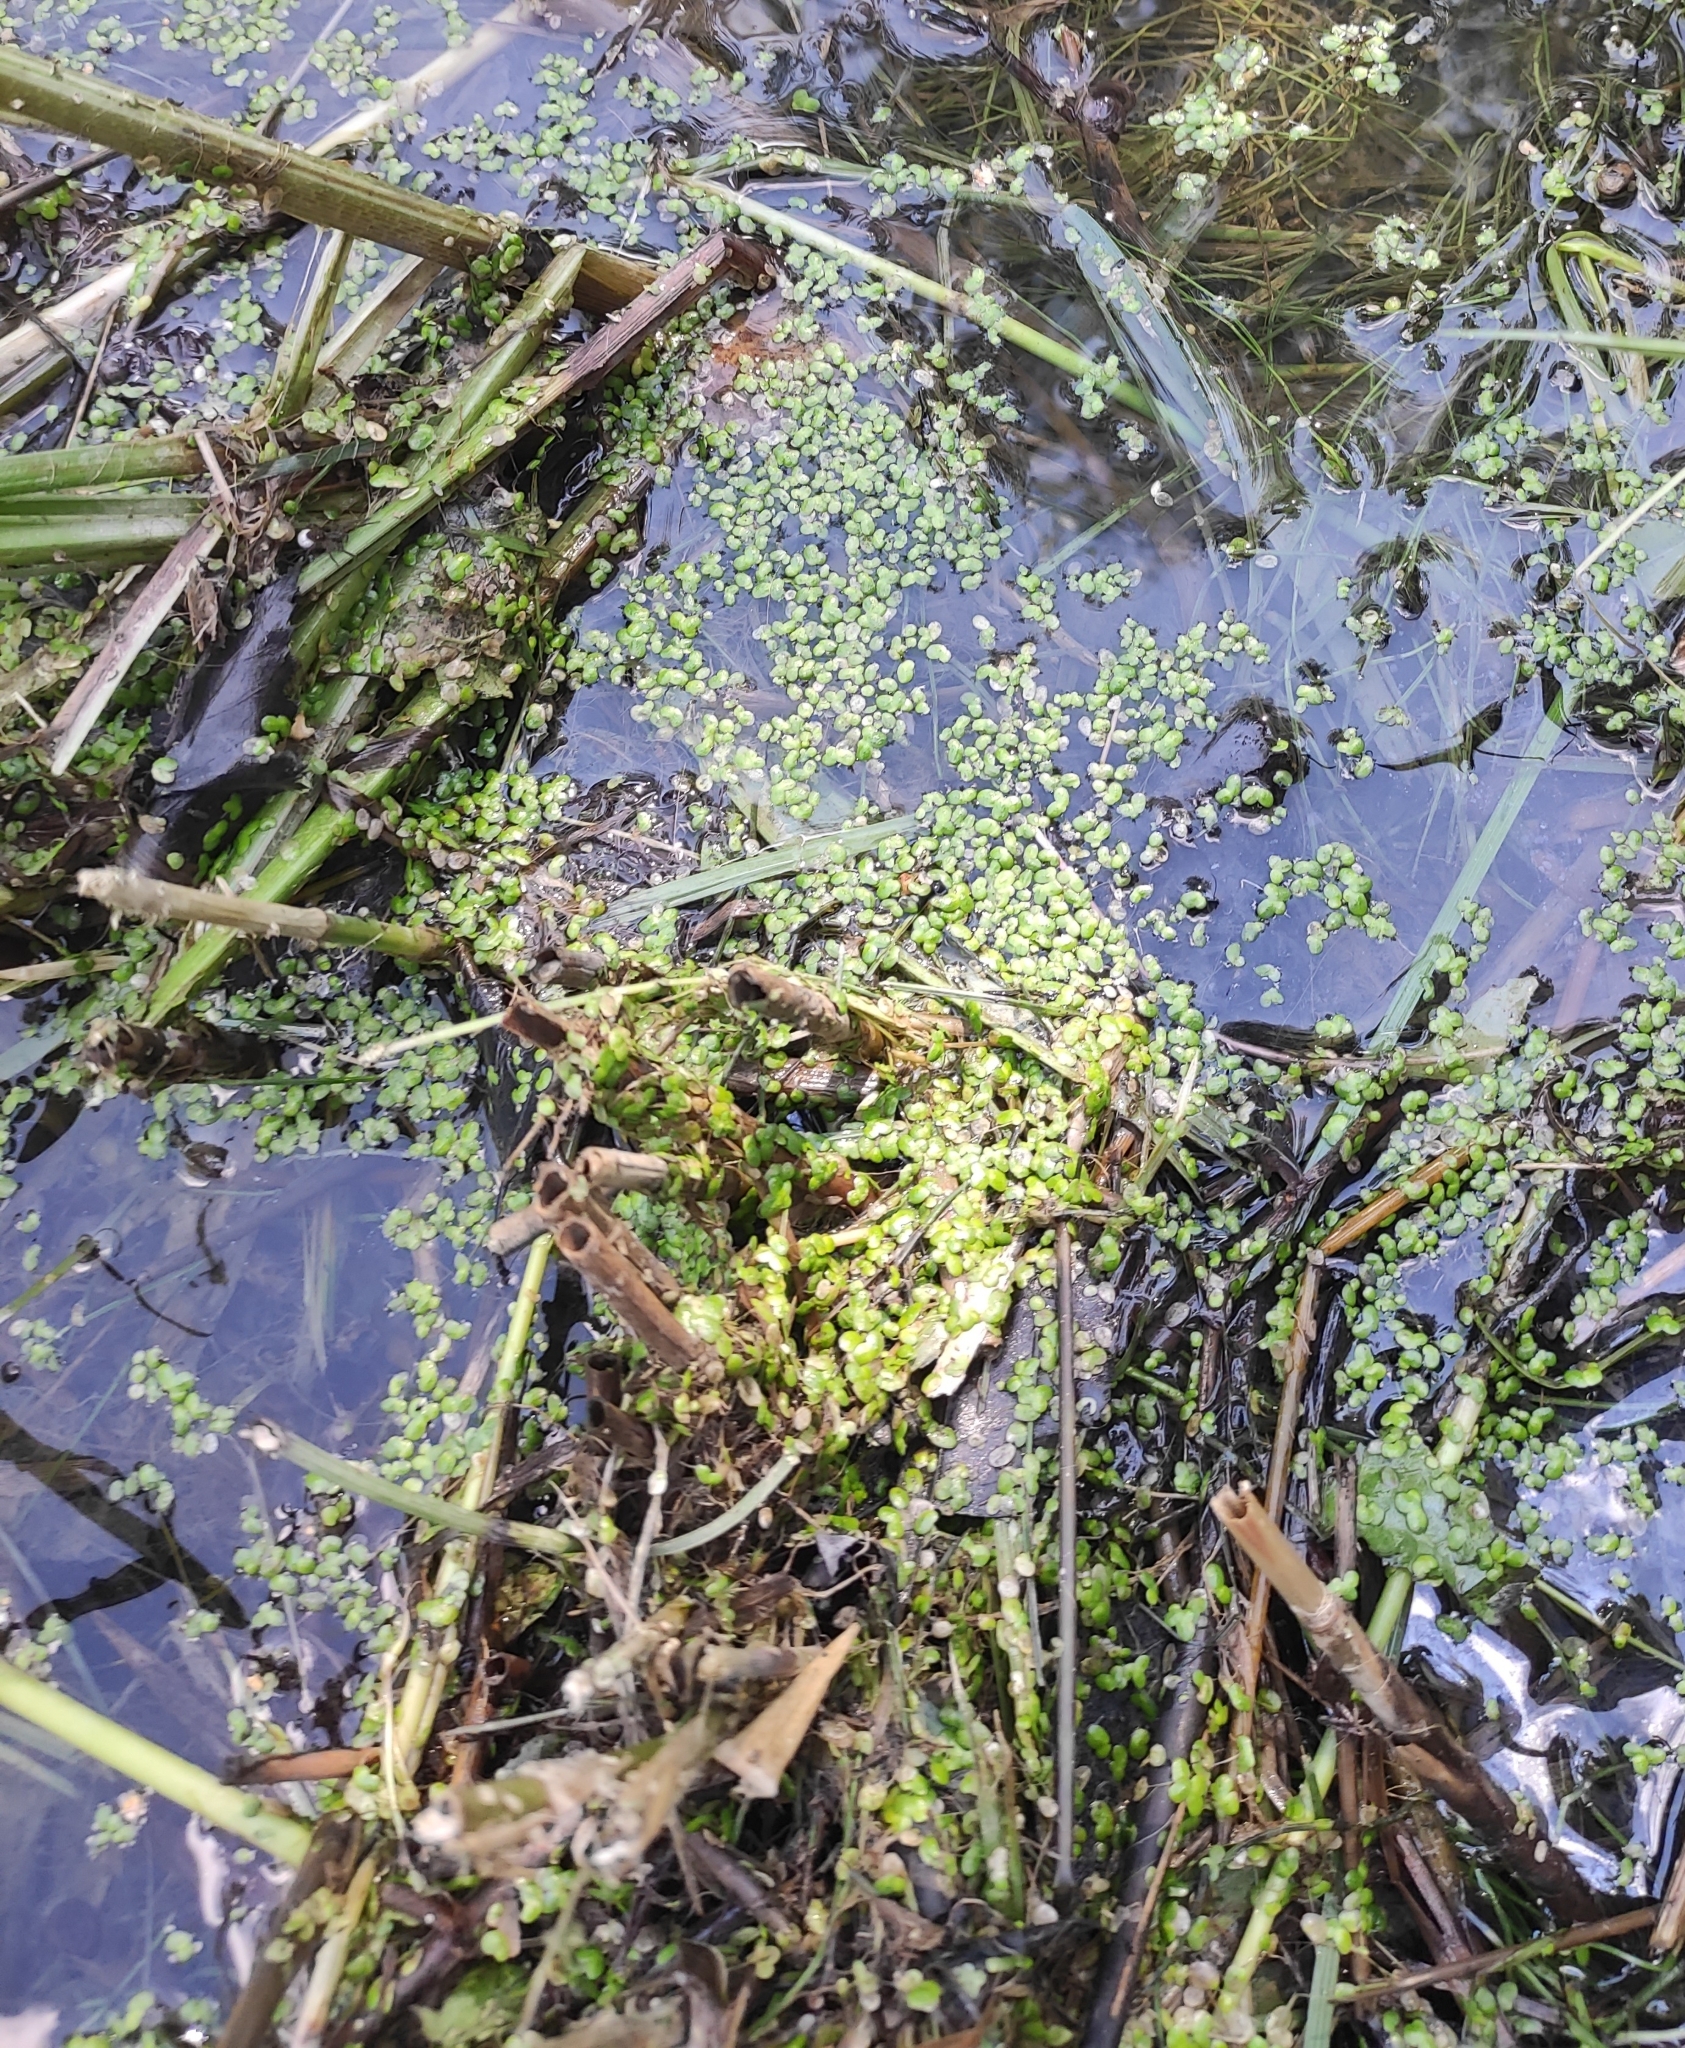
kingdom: Plantae
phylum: Tracheophyta
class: Liliopsida
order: Alismatales
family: Araceae
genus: Lemna
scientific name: Lemna
